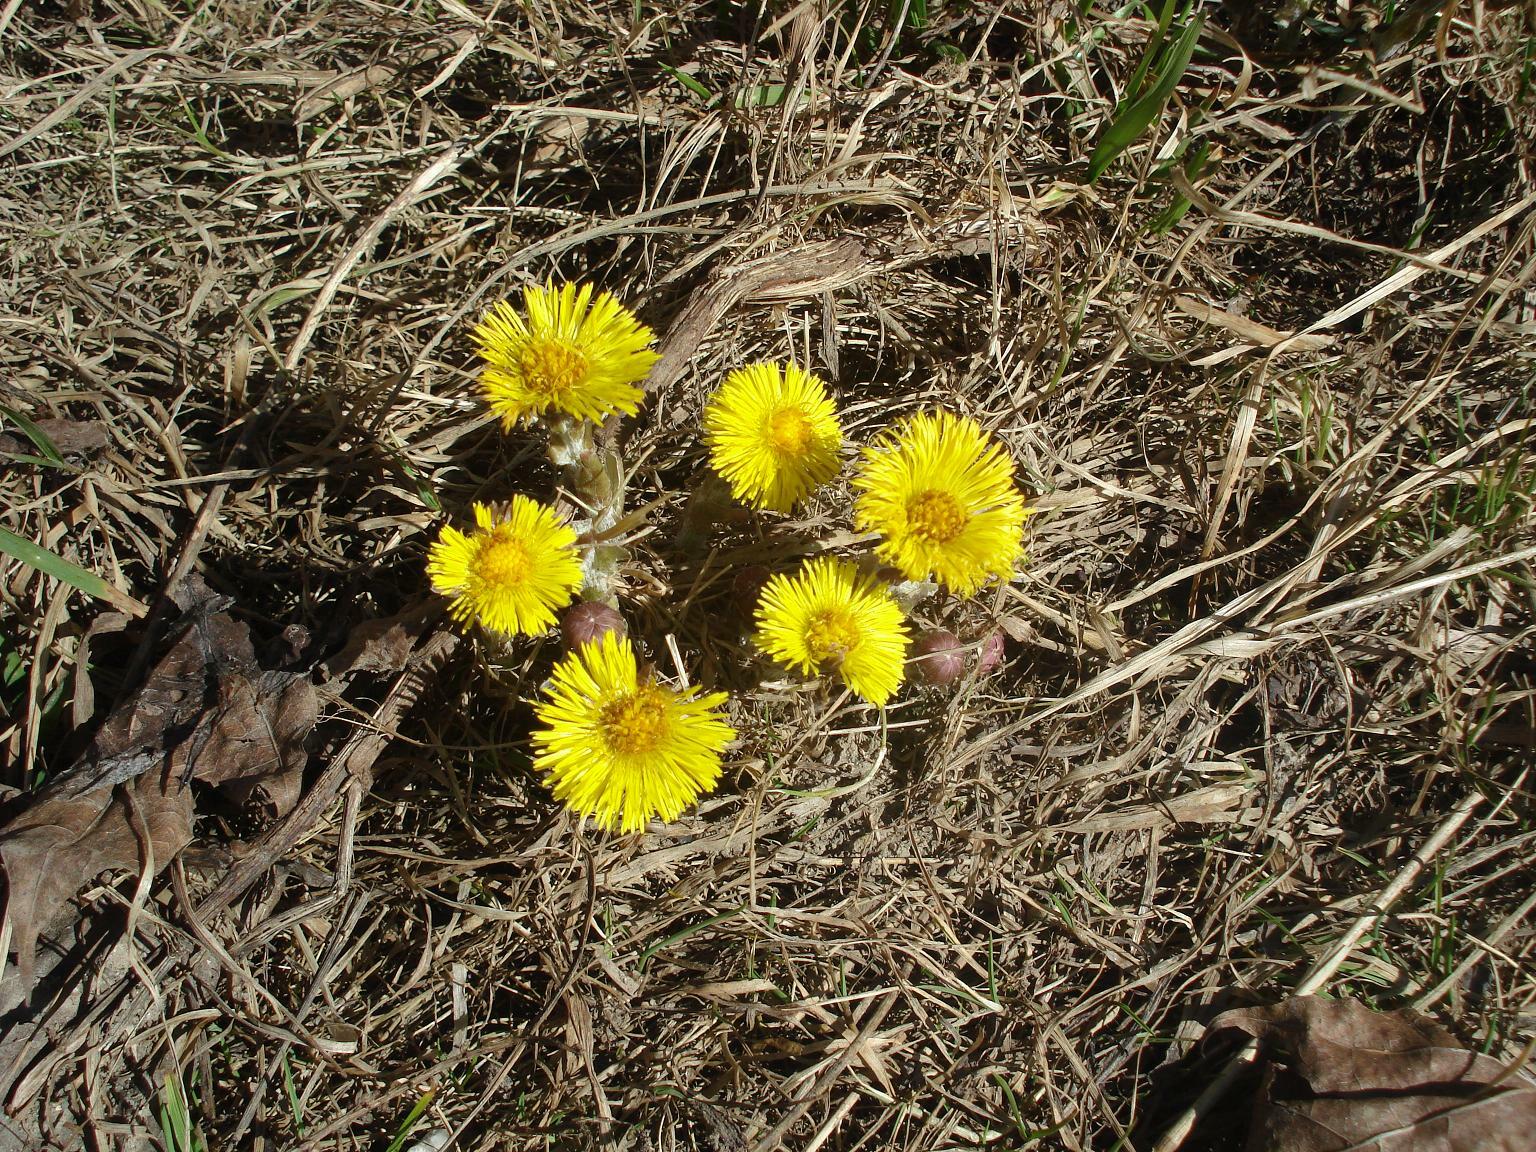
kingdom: Plantae
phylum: Tracheophyta
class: Magnoliopsida
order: Asterales
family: Asteraceae
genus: Tussilago
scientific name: Tussilago farfara
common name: Coltsfoot
